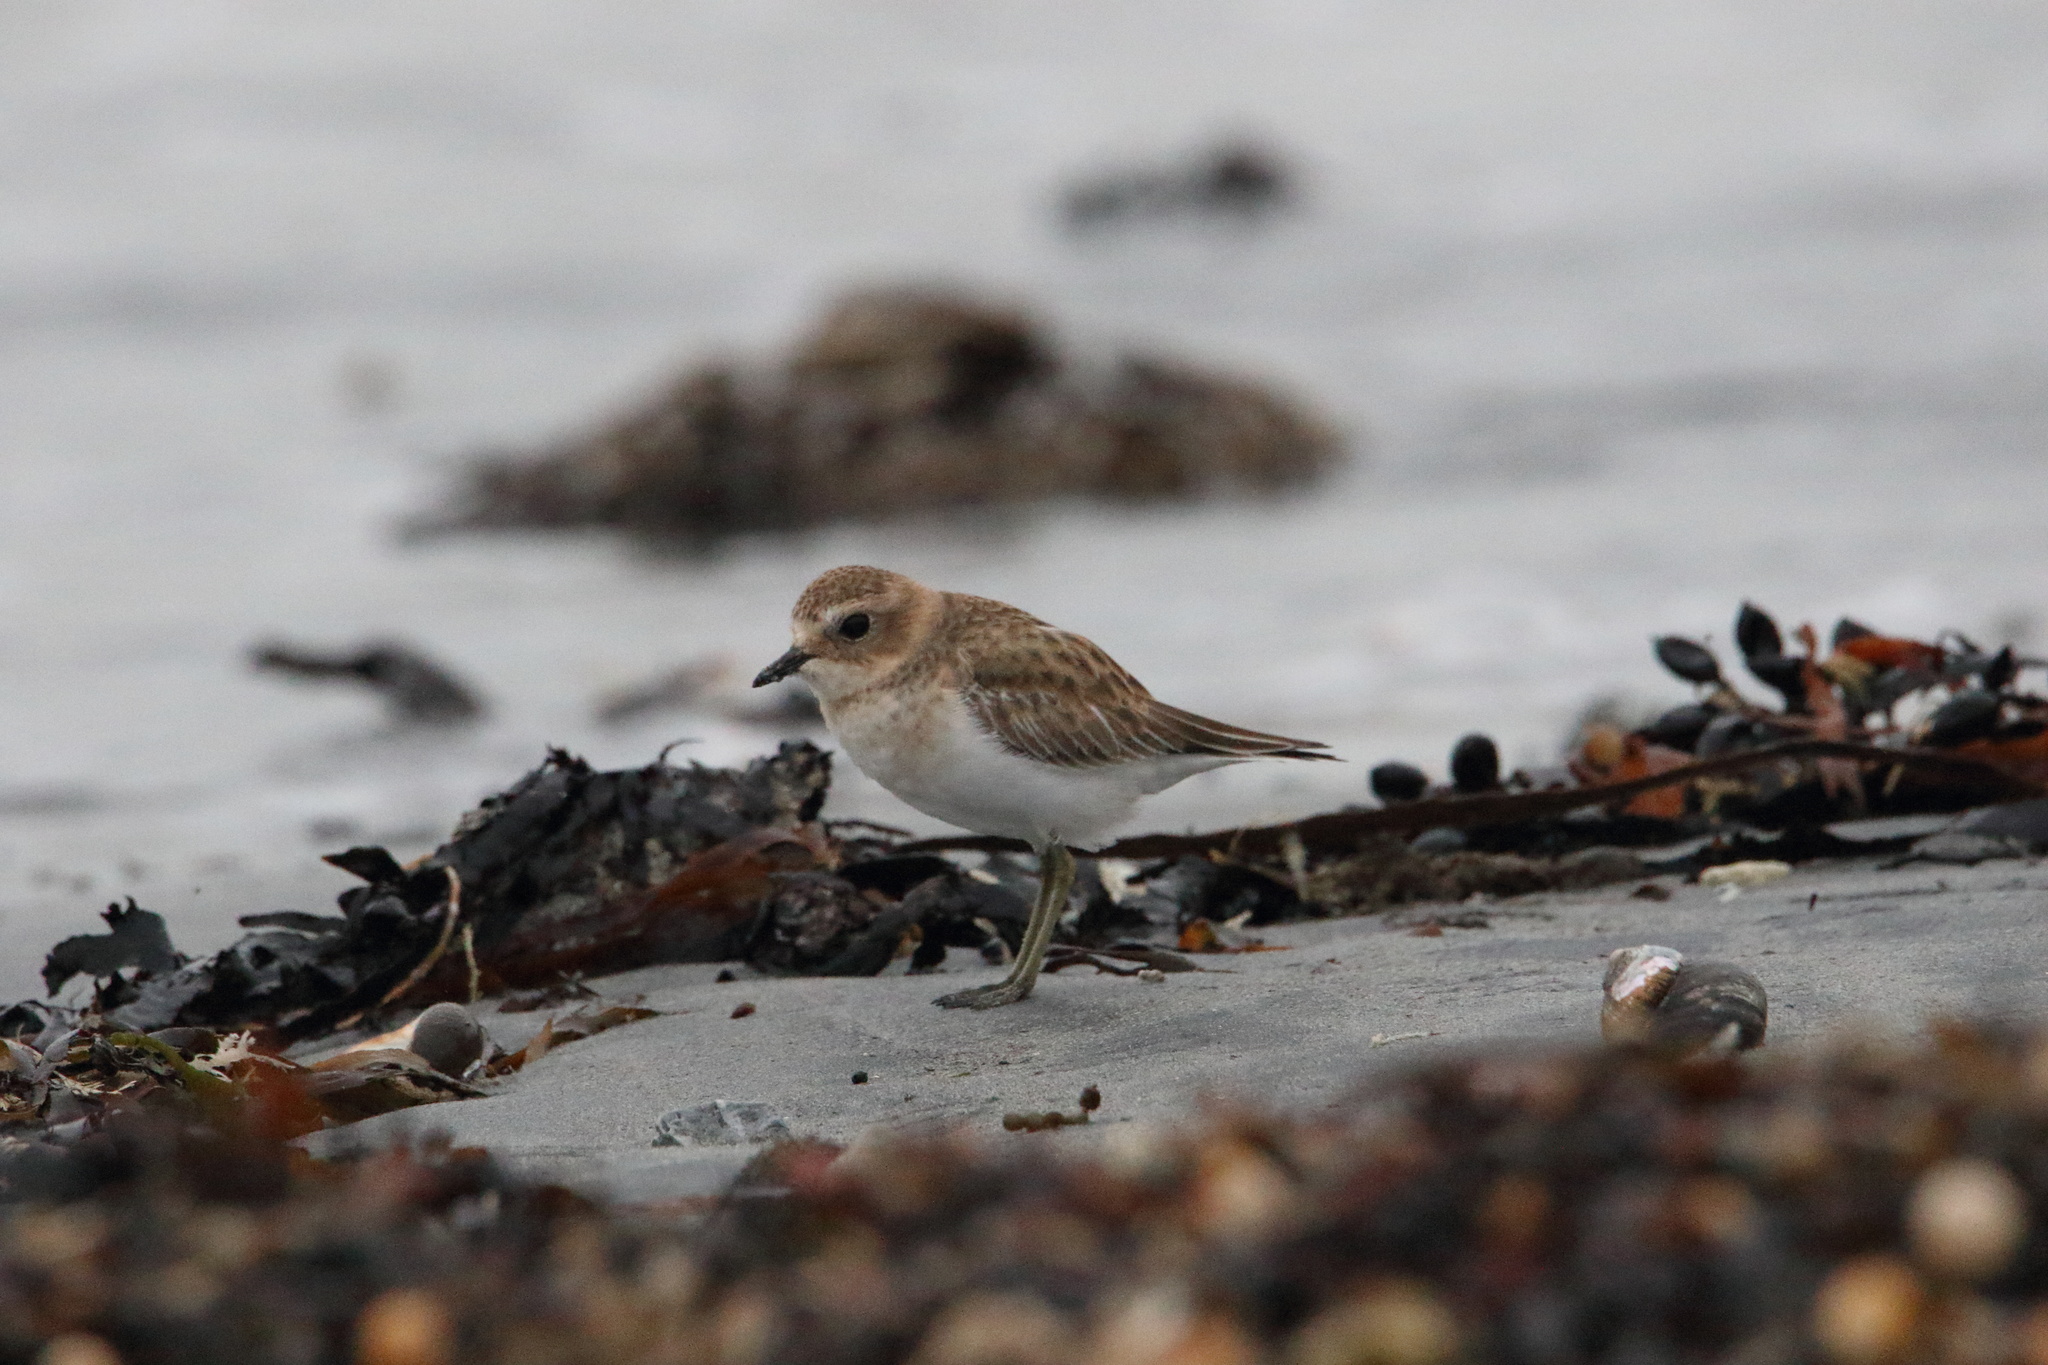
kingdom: Animalia
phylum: Chordata
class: Aves
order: Charadriiformes
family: Charadriidae
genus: Anarhynchus
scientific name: Anarhynchus
